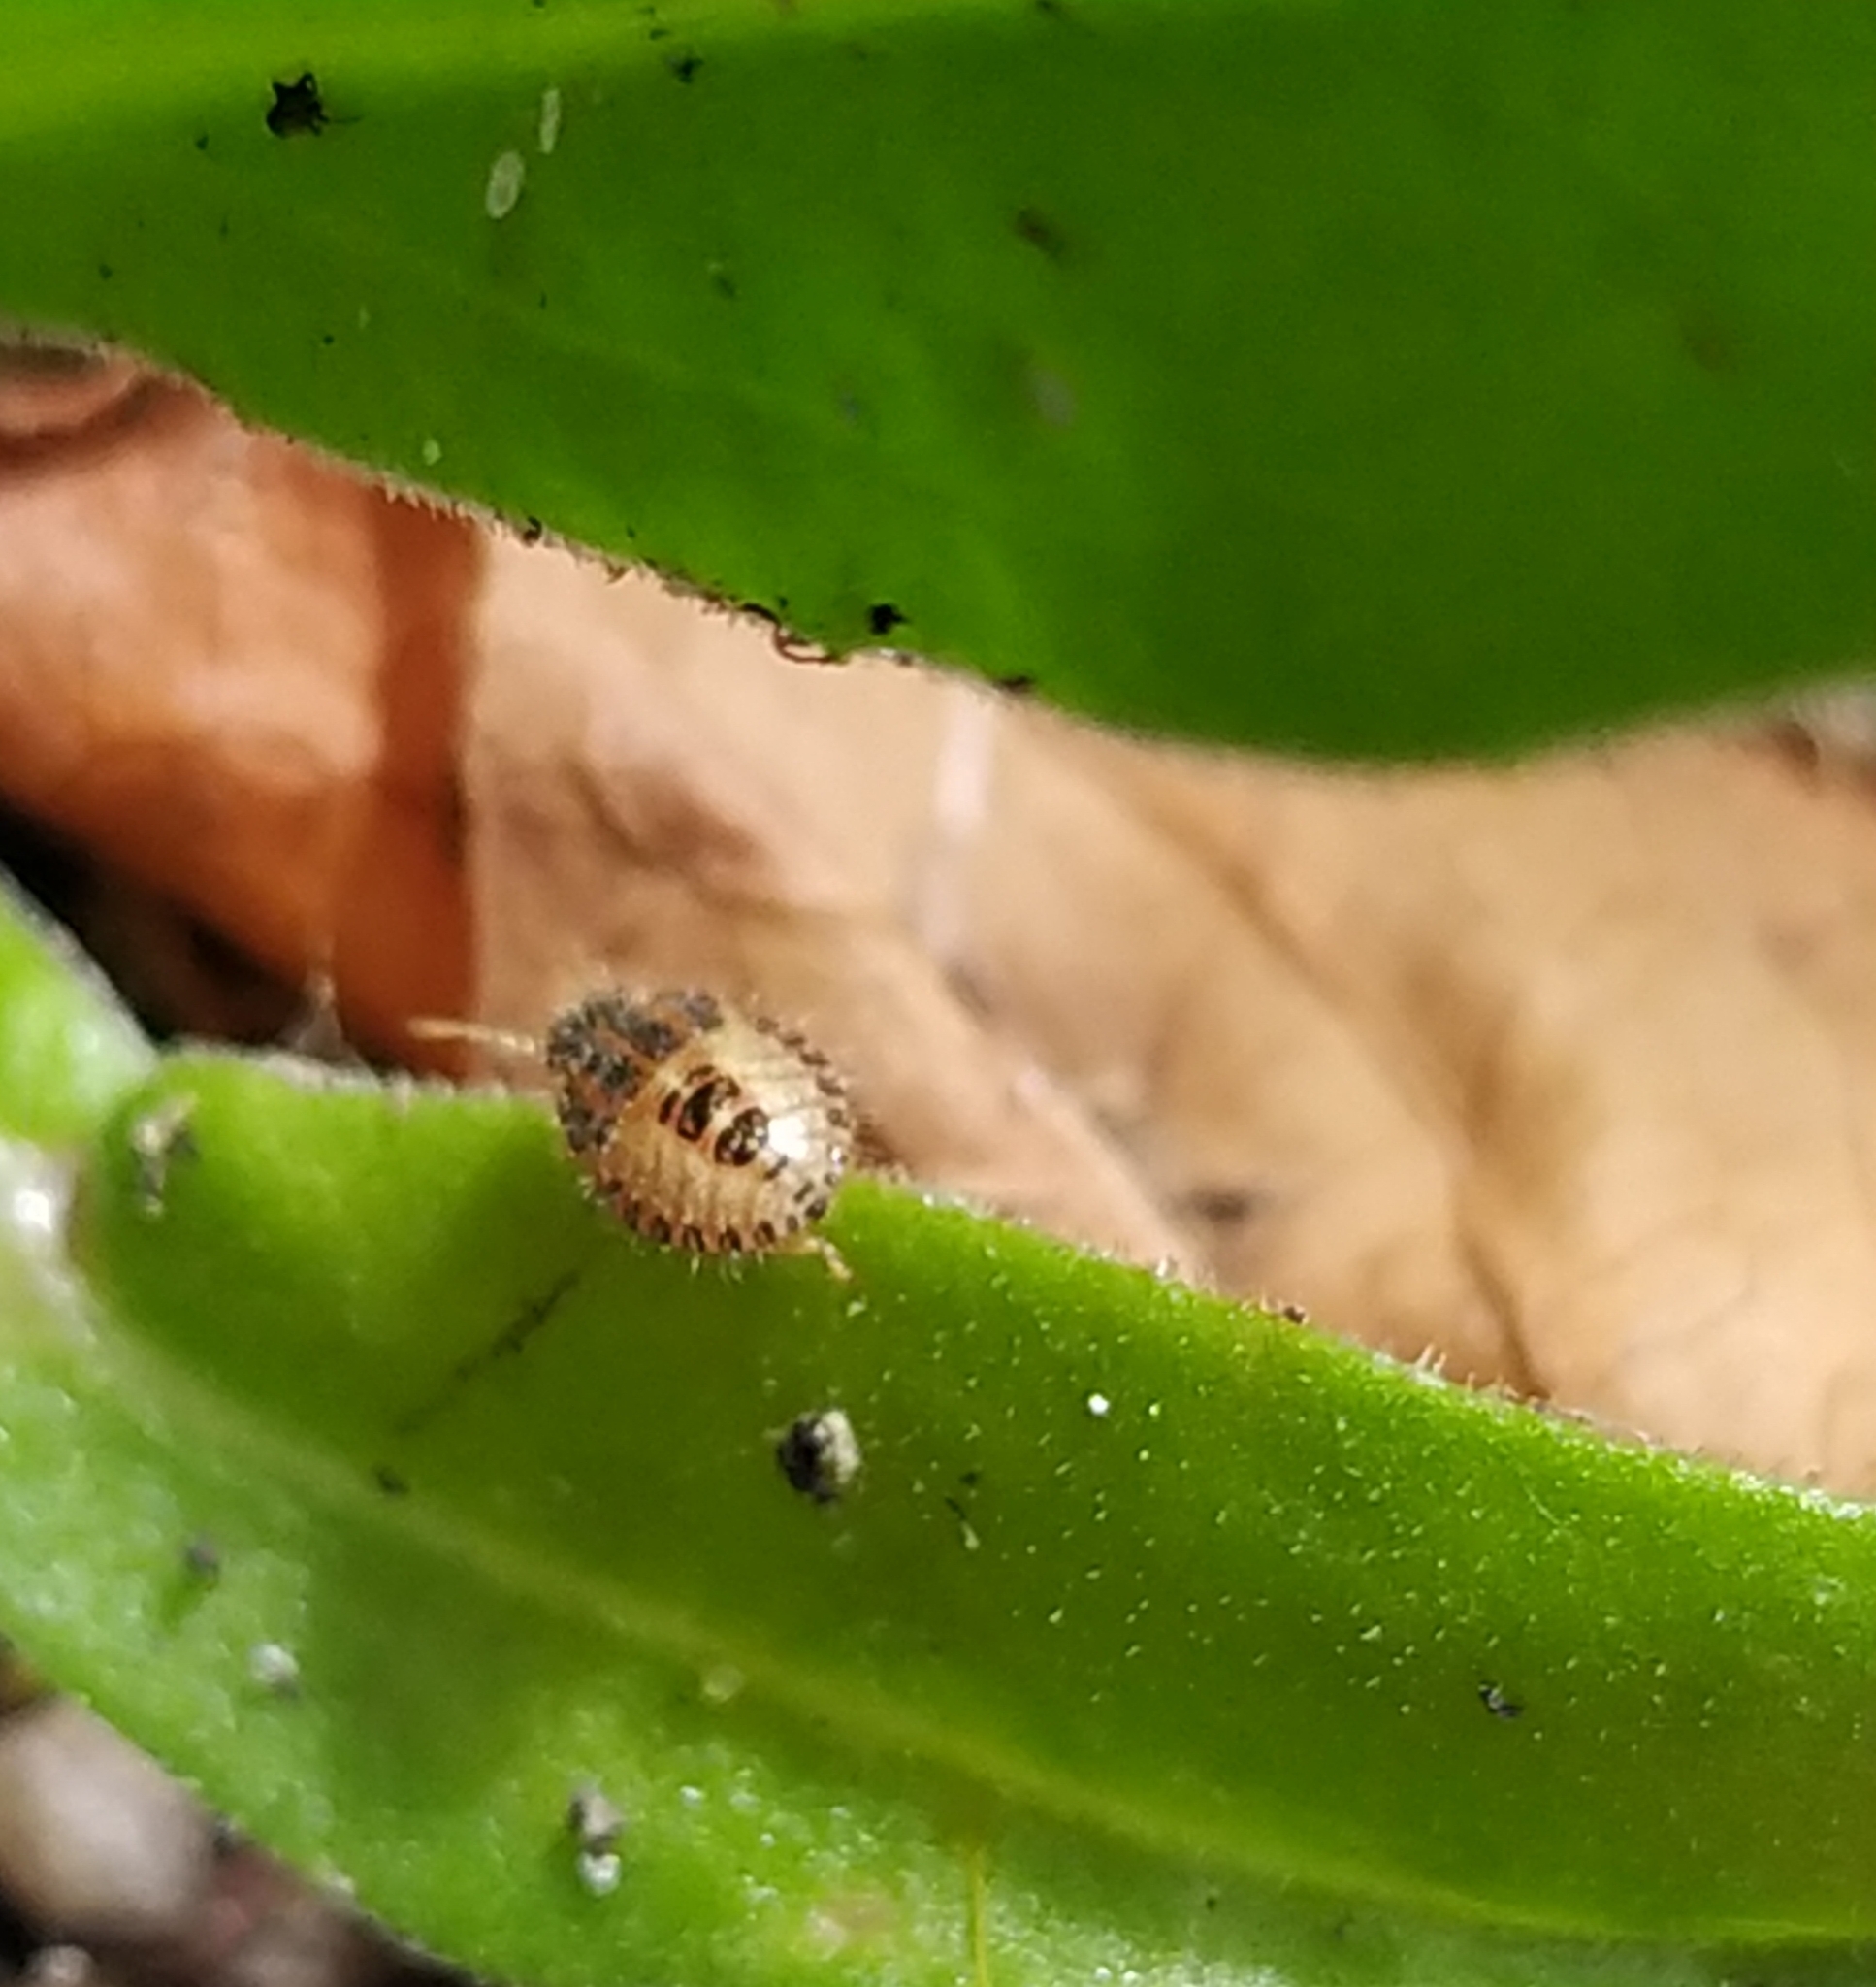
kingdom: Animalia
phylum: Arthropoda
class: Insecta
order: Hemiptera
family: Pentatomidae
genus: Dolycoris
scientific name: Dolycoris baccarum
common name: Sloe bug
